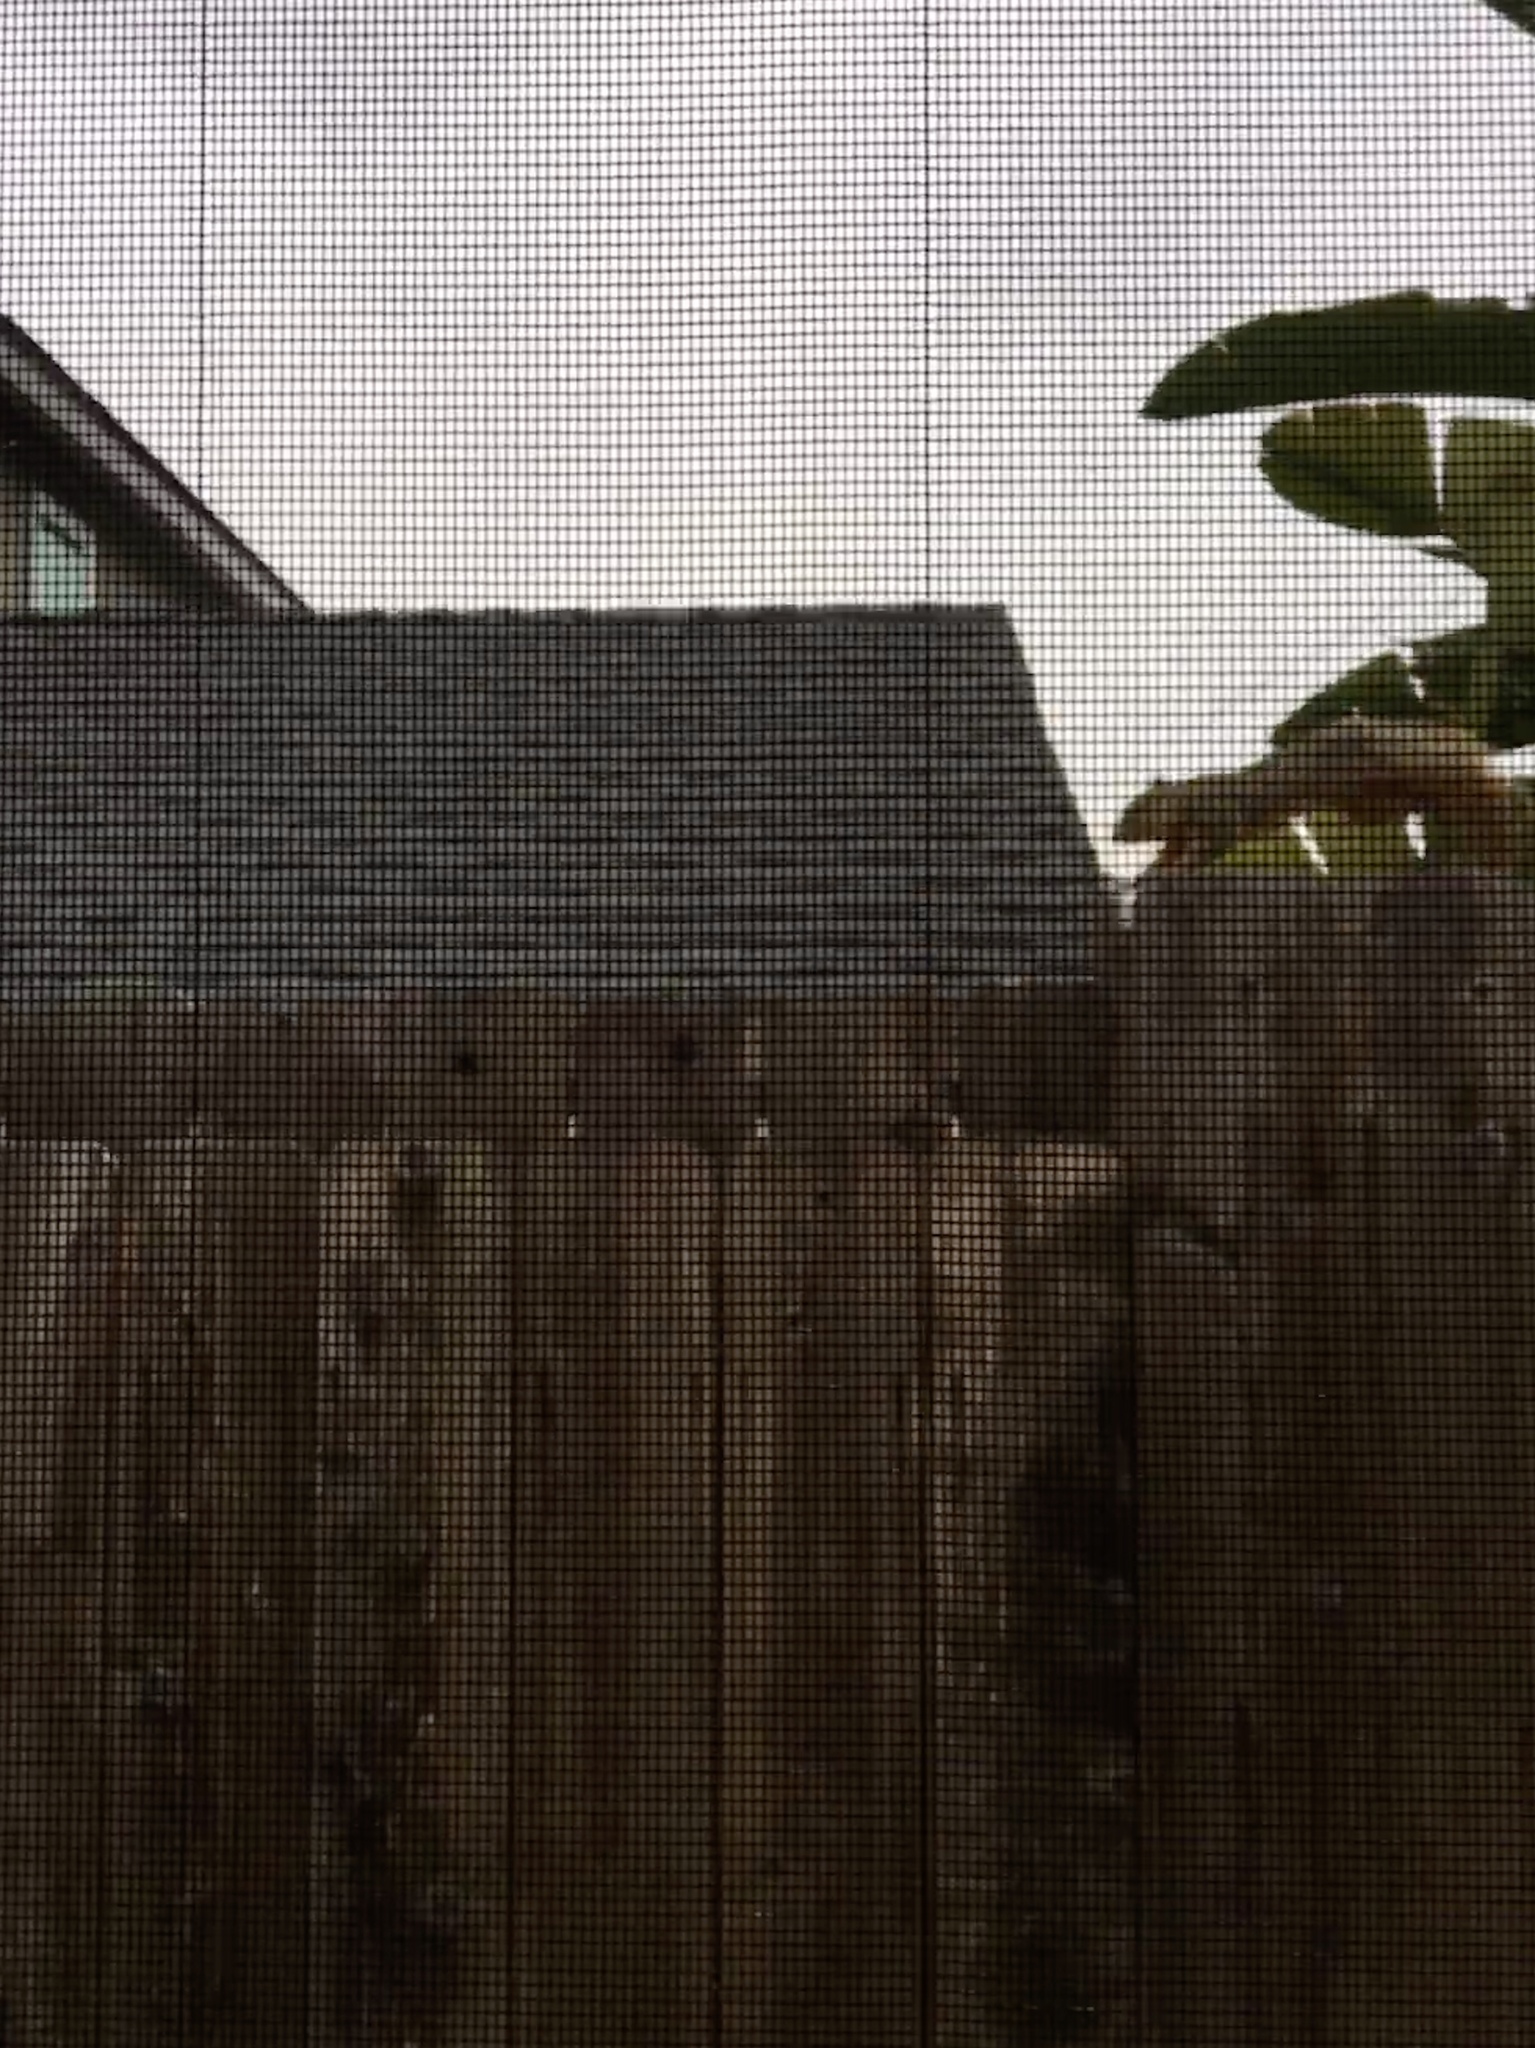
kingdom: Animalia
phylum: Chordata
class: Mammalia
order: Rodentia
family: Sciuridae
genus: Sciurus
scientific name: Sciurus niger
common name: Fox squirrel
